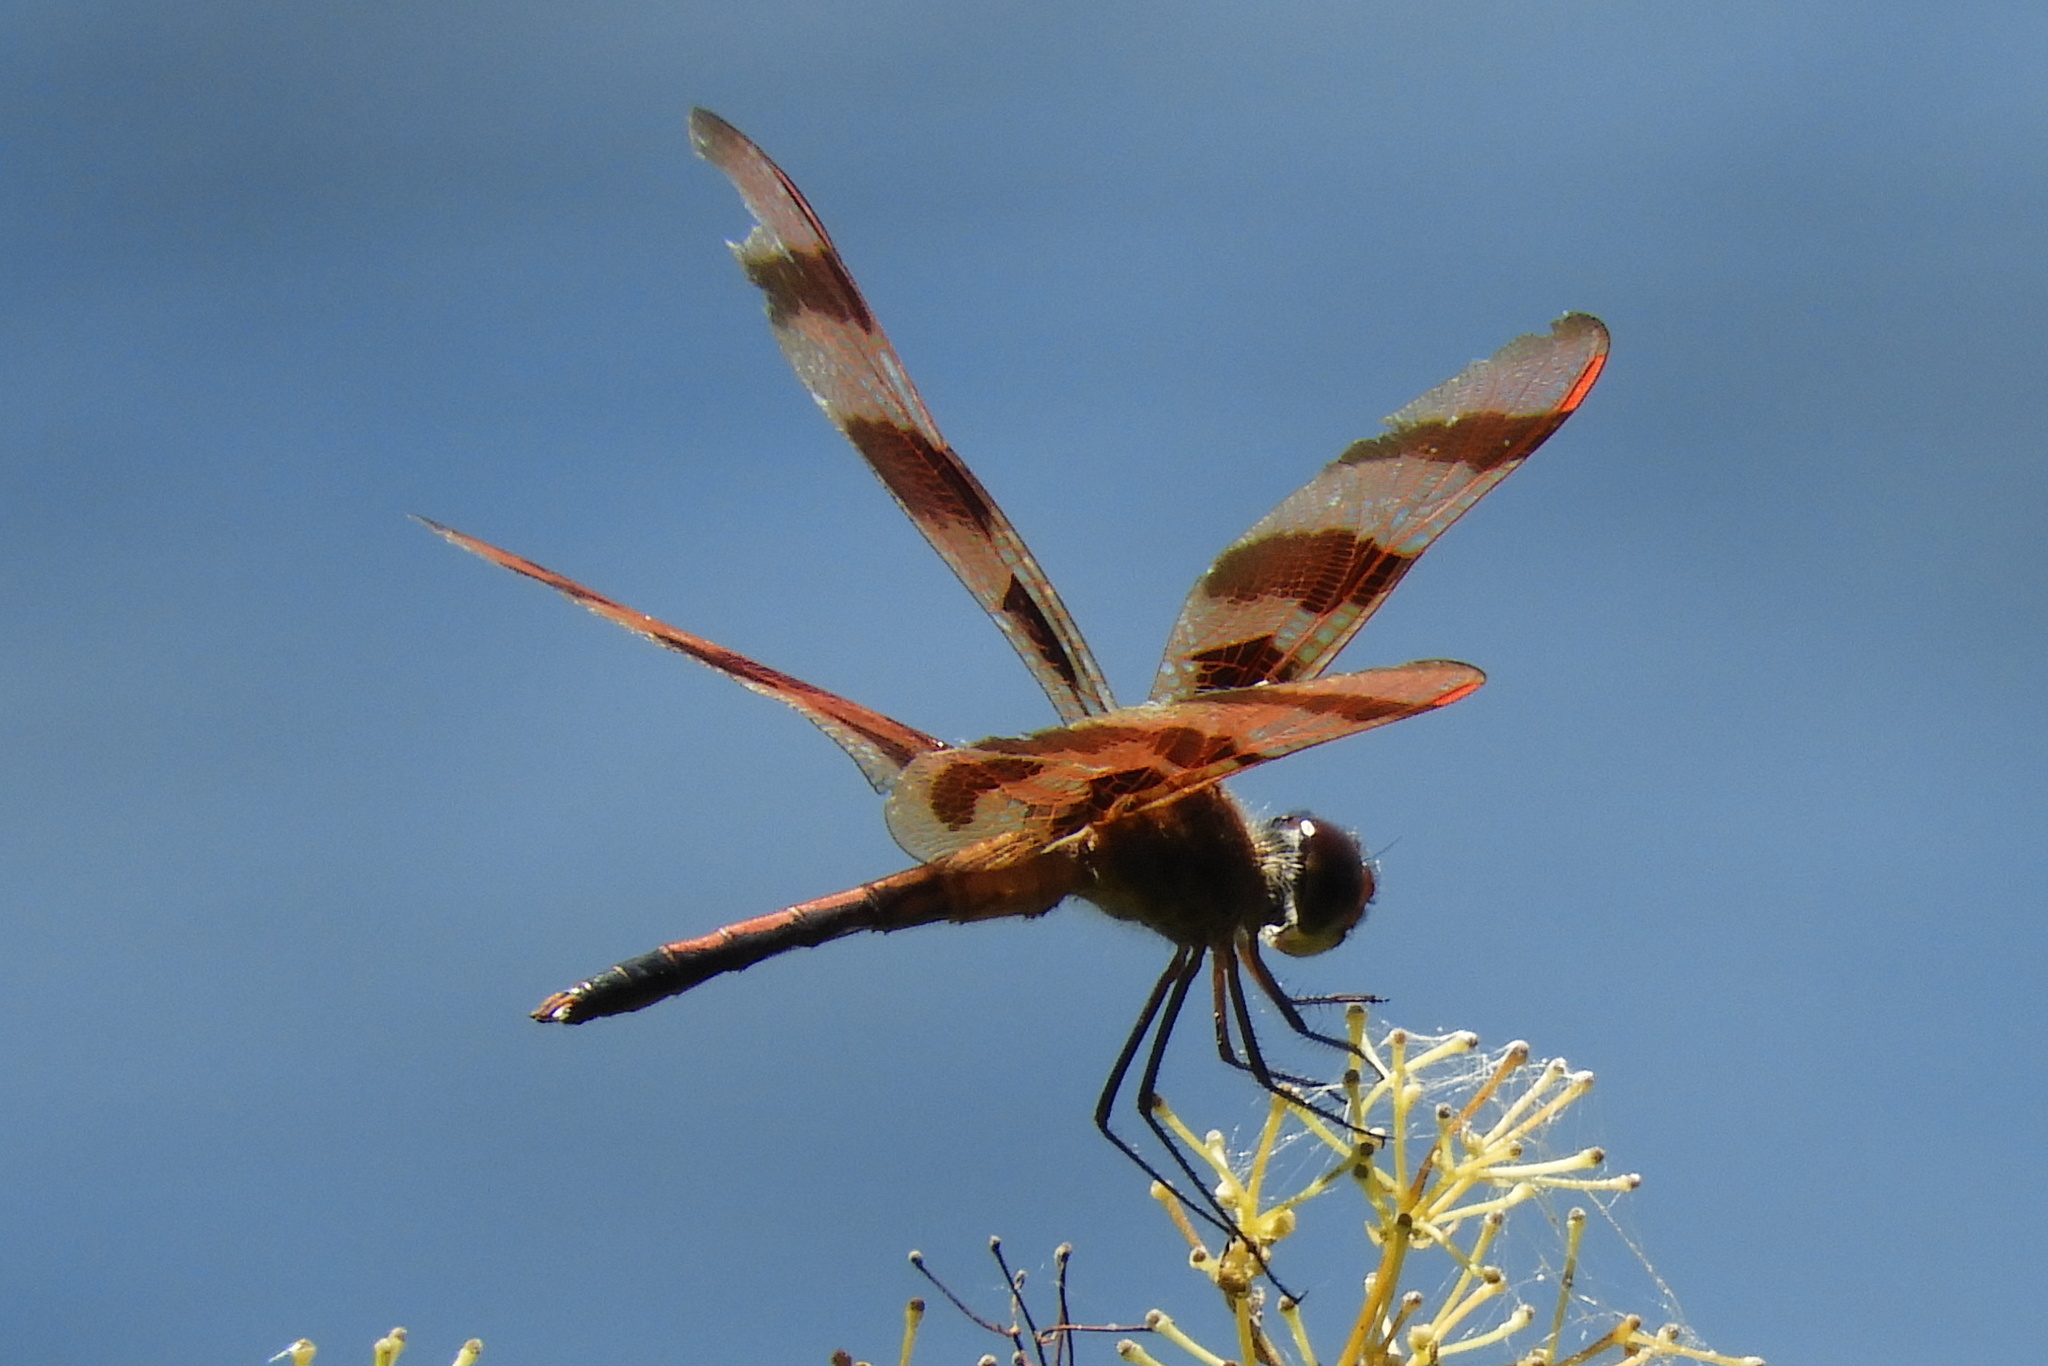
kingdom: Animalia
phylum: Arthropoda
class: Insecta
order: Odonata
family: Libellulidae
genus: Celithemis
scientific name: Celithemis eponina
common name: Halloween pennant
